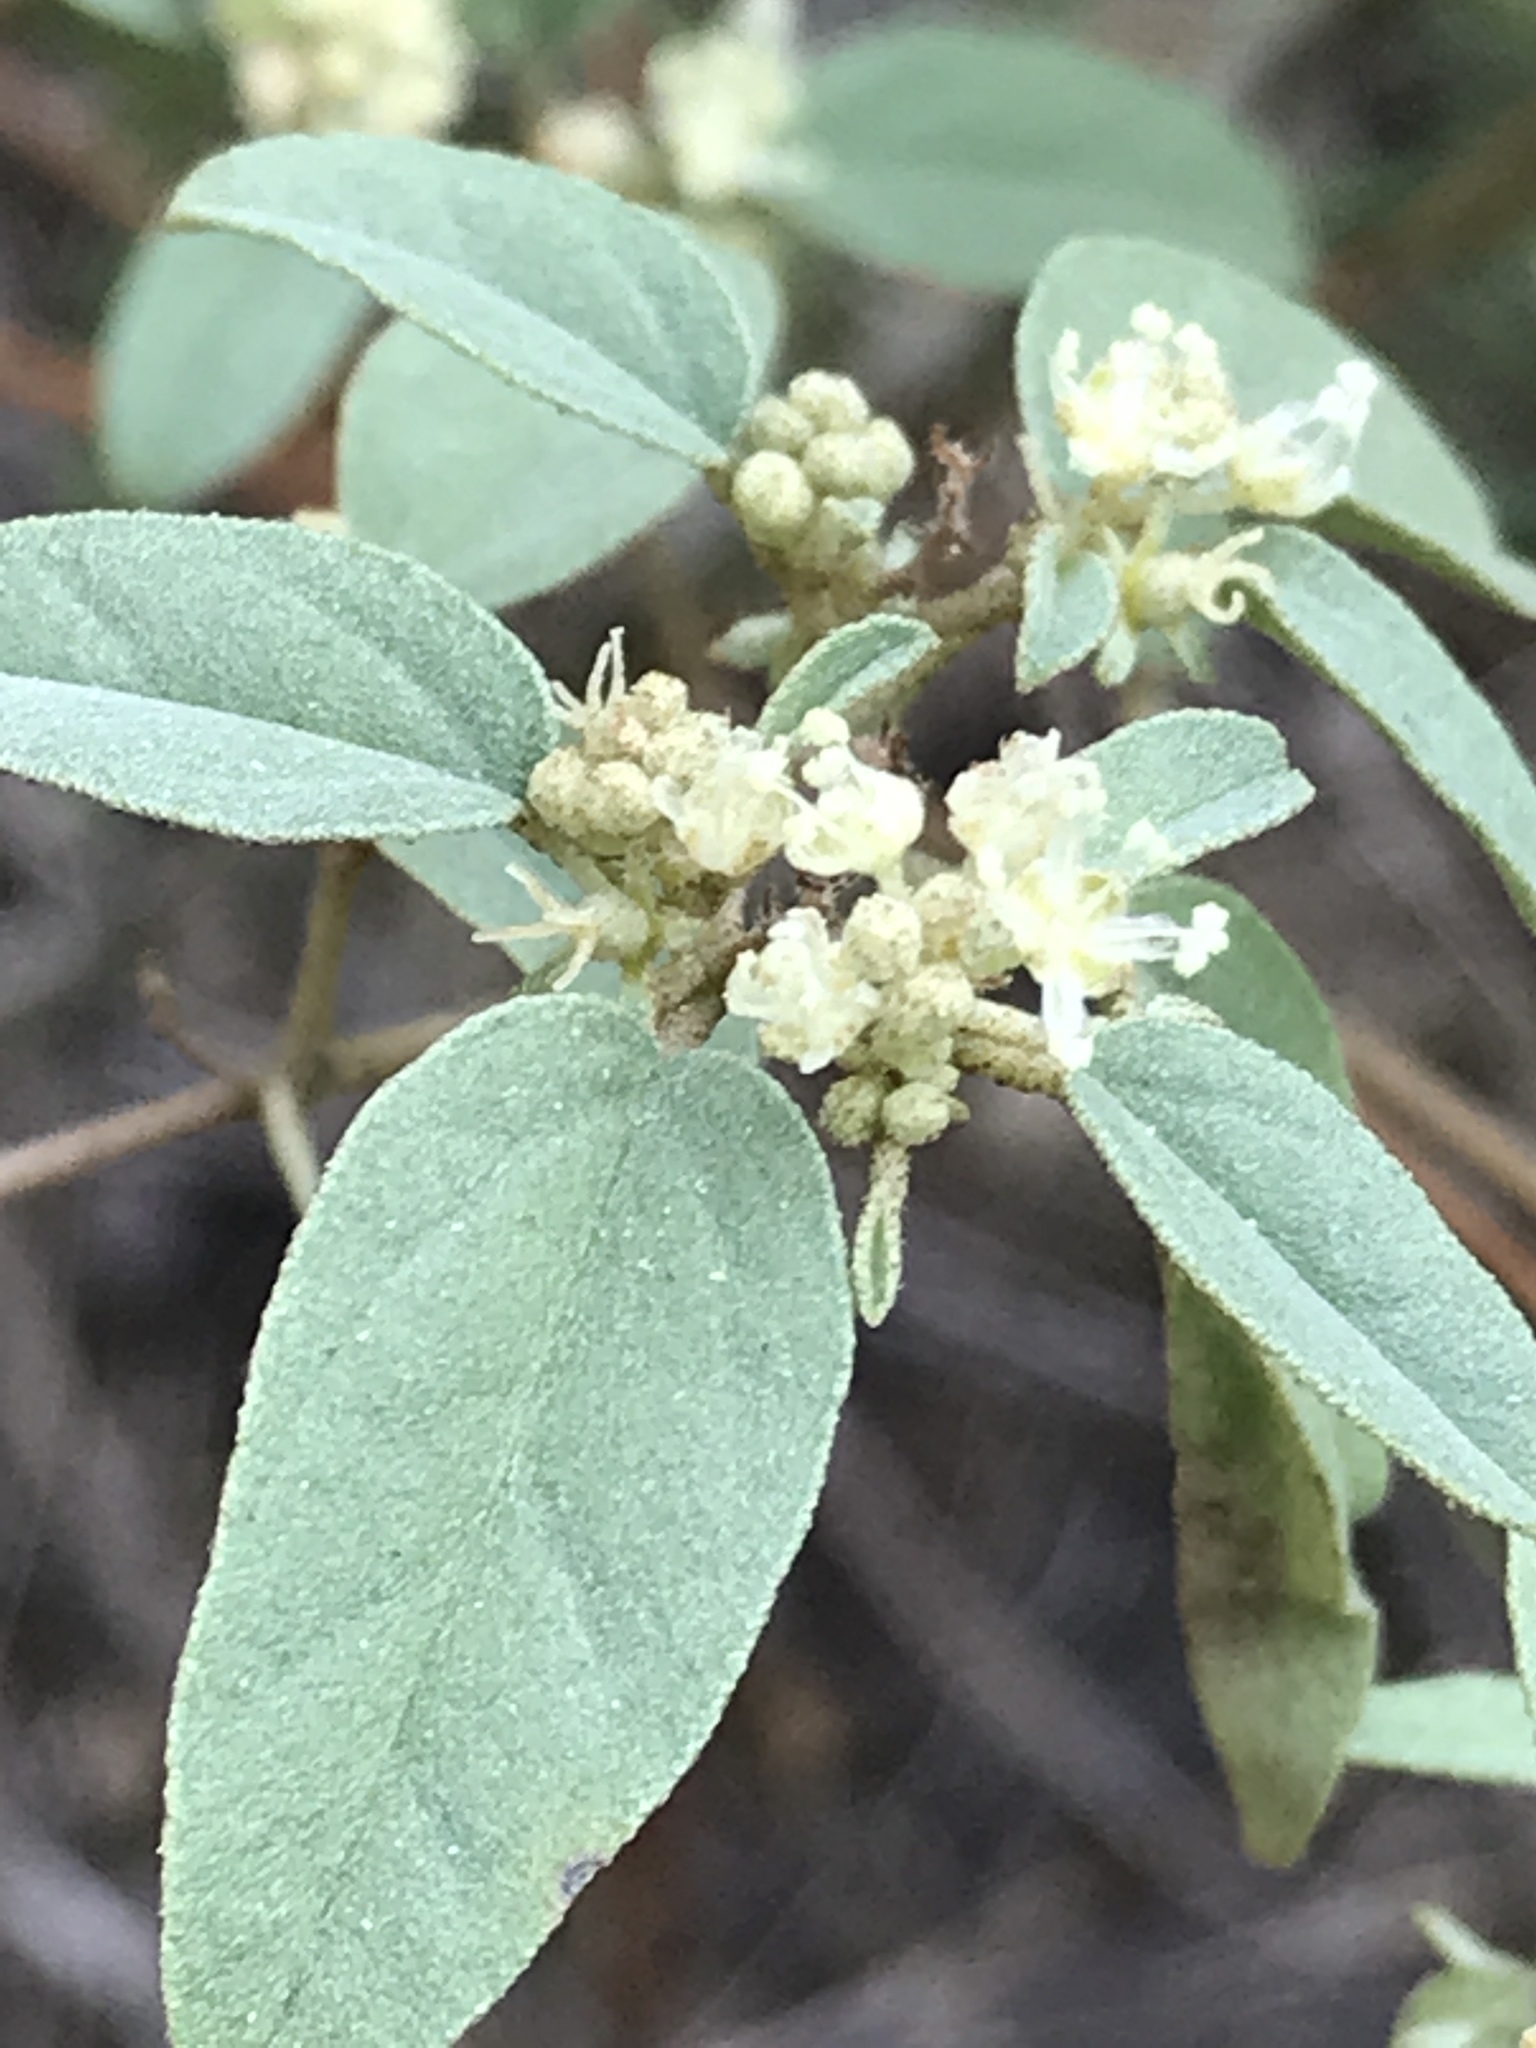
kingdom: Plantae
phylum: Tracheophyta
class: Magnoliopsida
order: Malpighiales
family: Euphorbiaceae
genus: Croton
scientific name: Croton monanthogynus
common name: One-seed croton
